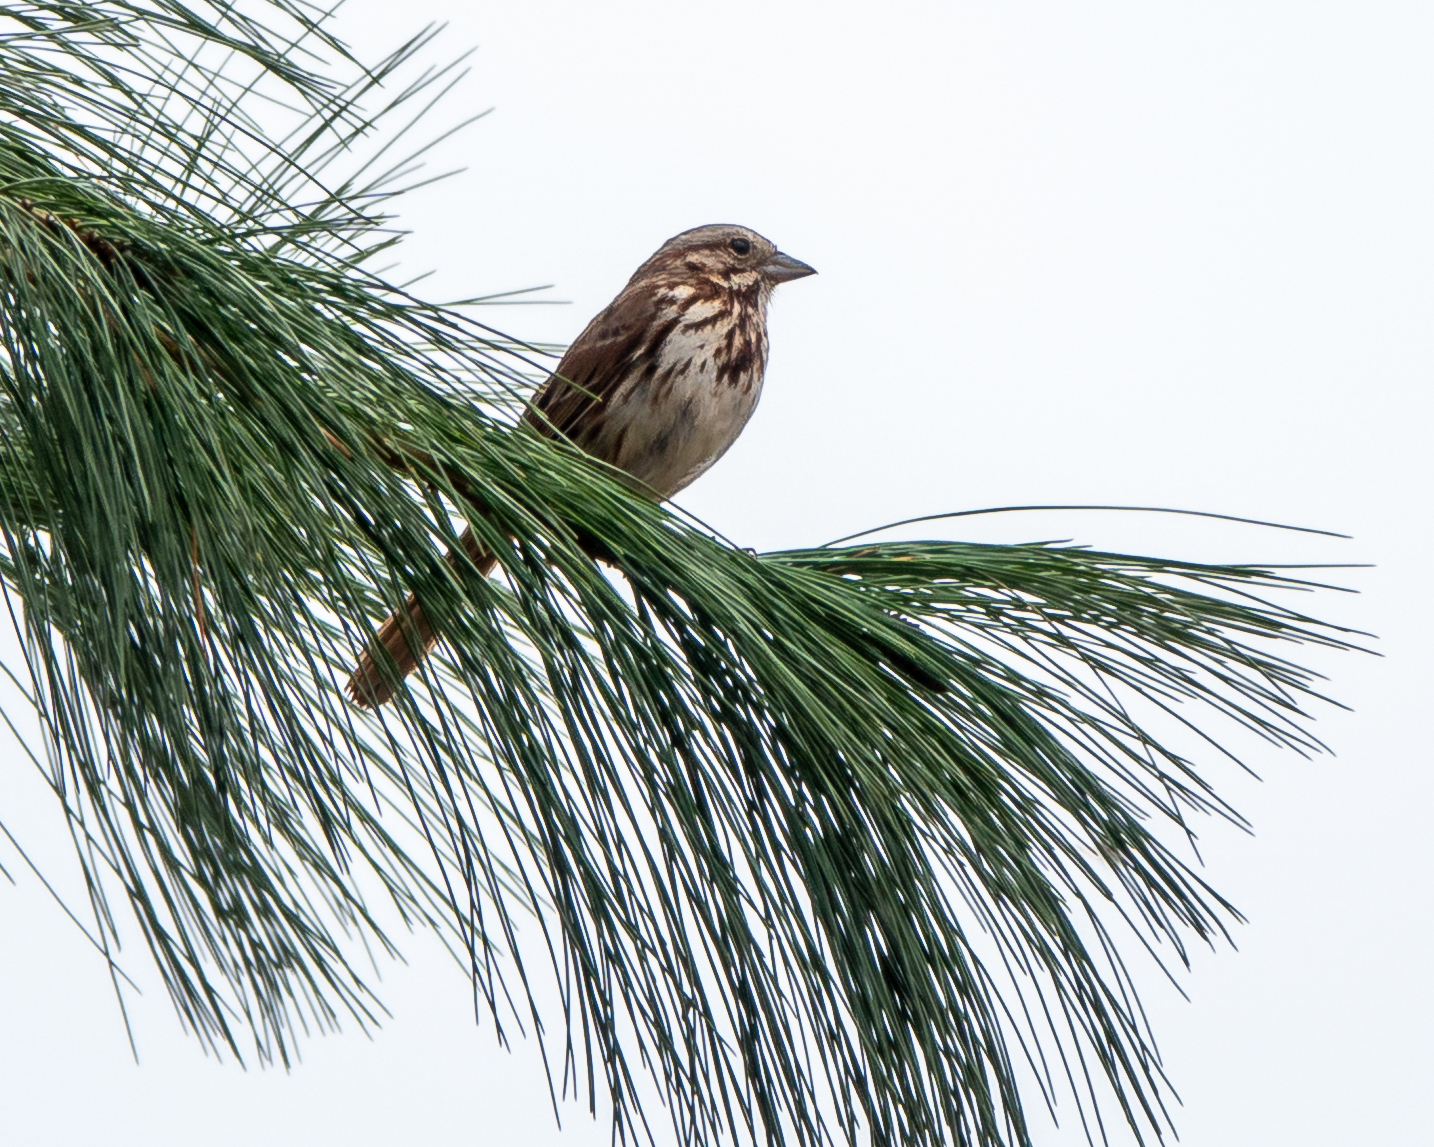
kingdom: Animalia
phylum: Chordata
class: Aves
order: Passeriformes
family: Passerellidae
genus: Melospiza
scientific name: Melospiza melodia
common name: Song sparrow
